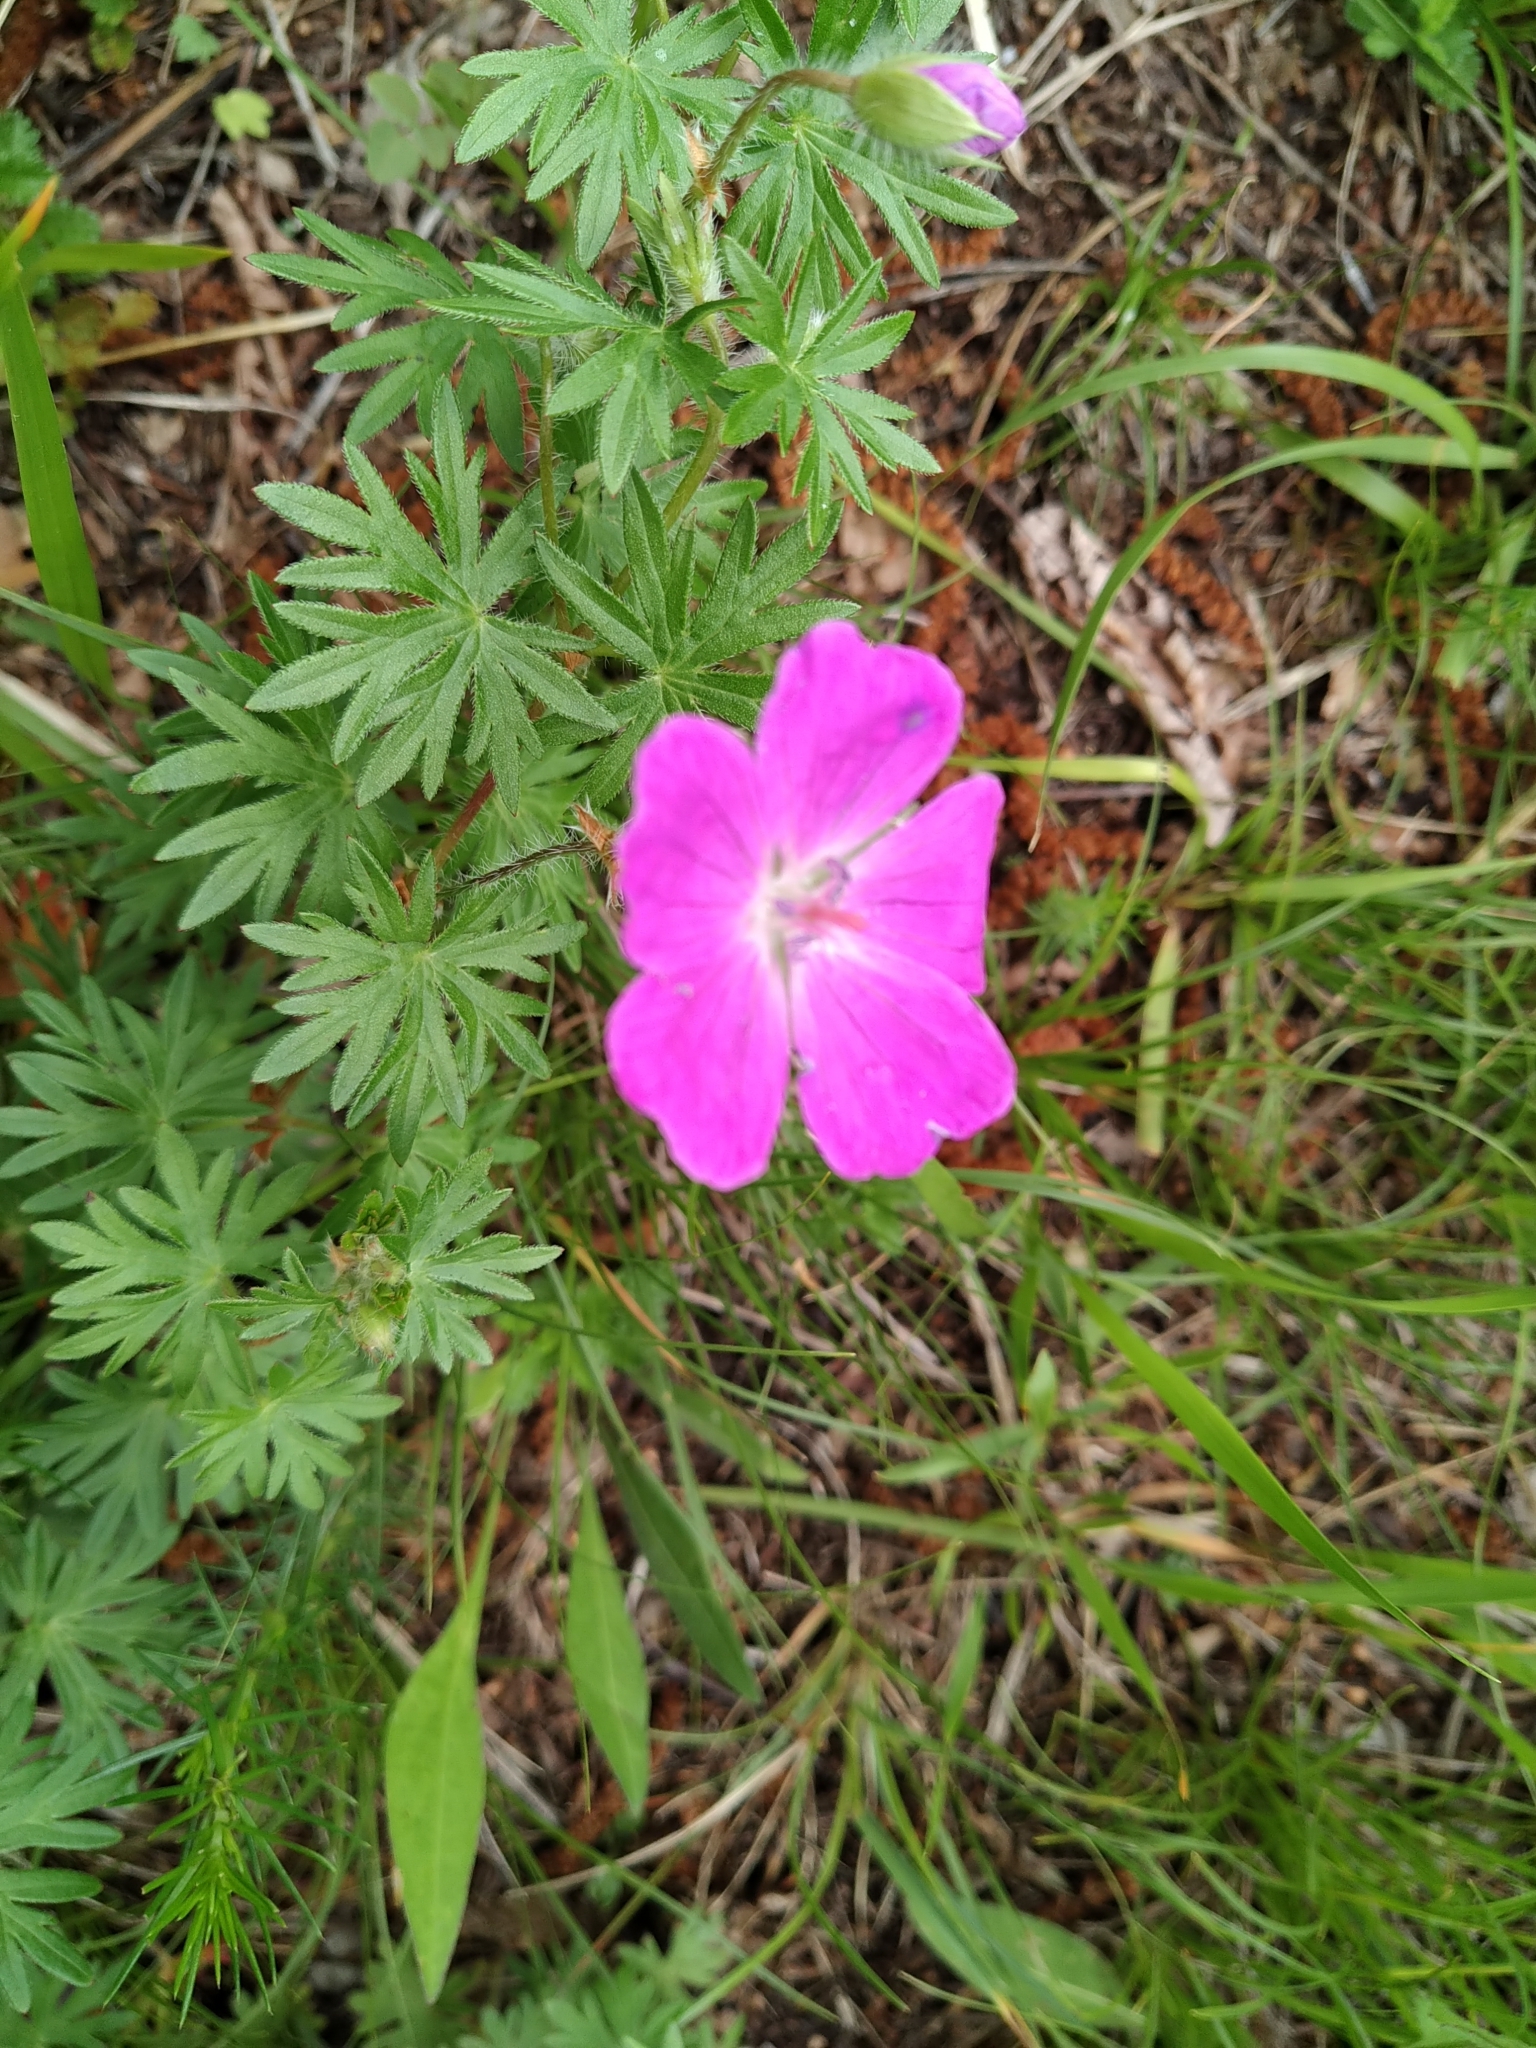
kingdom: Plantae
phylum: Tracheophyta
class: Magnoliopsida
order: Geraniales
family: Geraniaceae
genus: Geranium
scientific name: Geranium sanguineum
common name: Bloody crane's-bill
